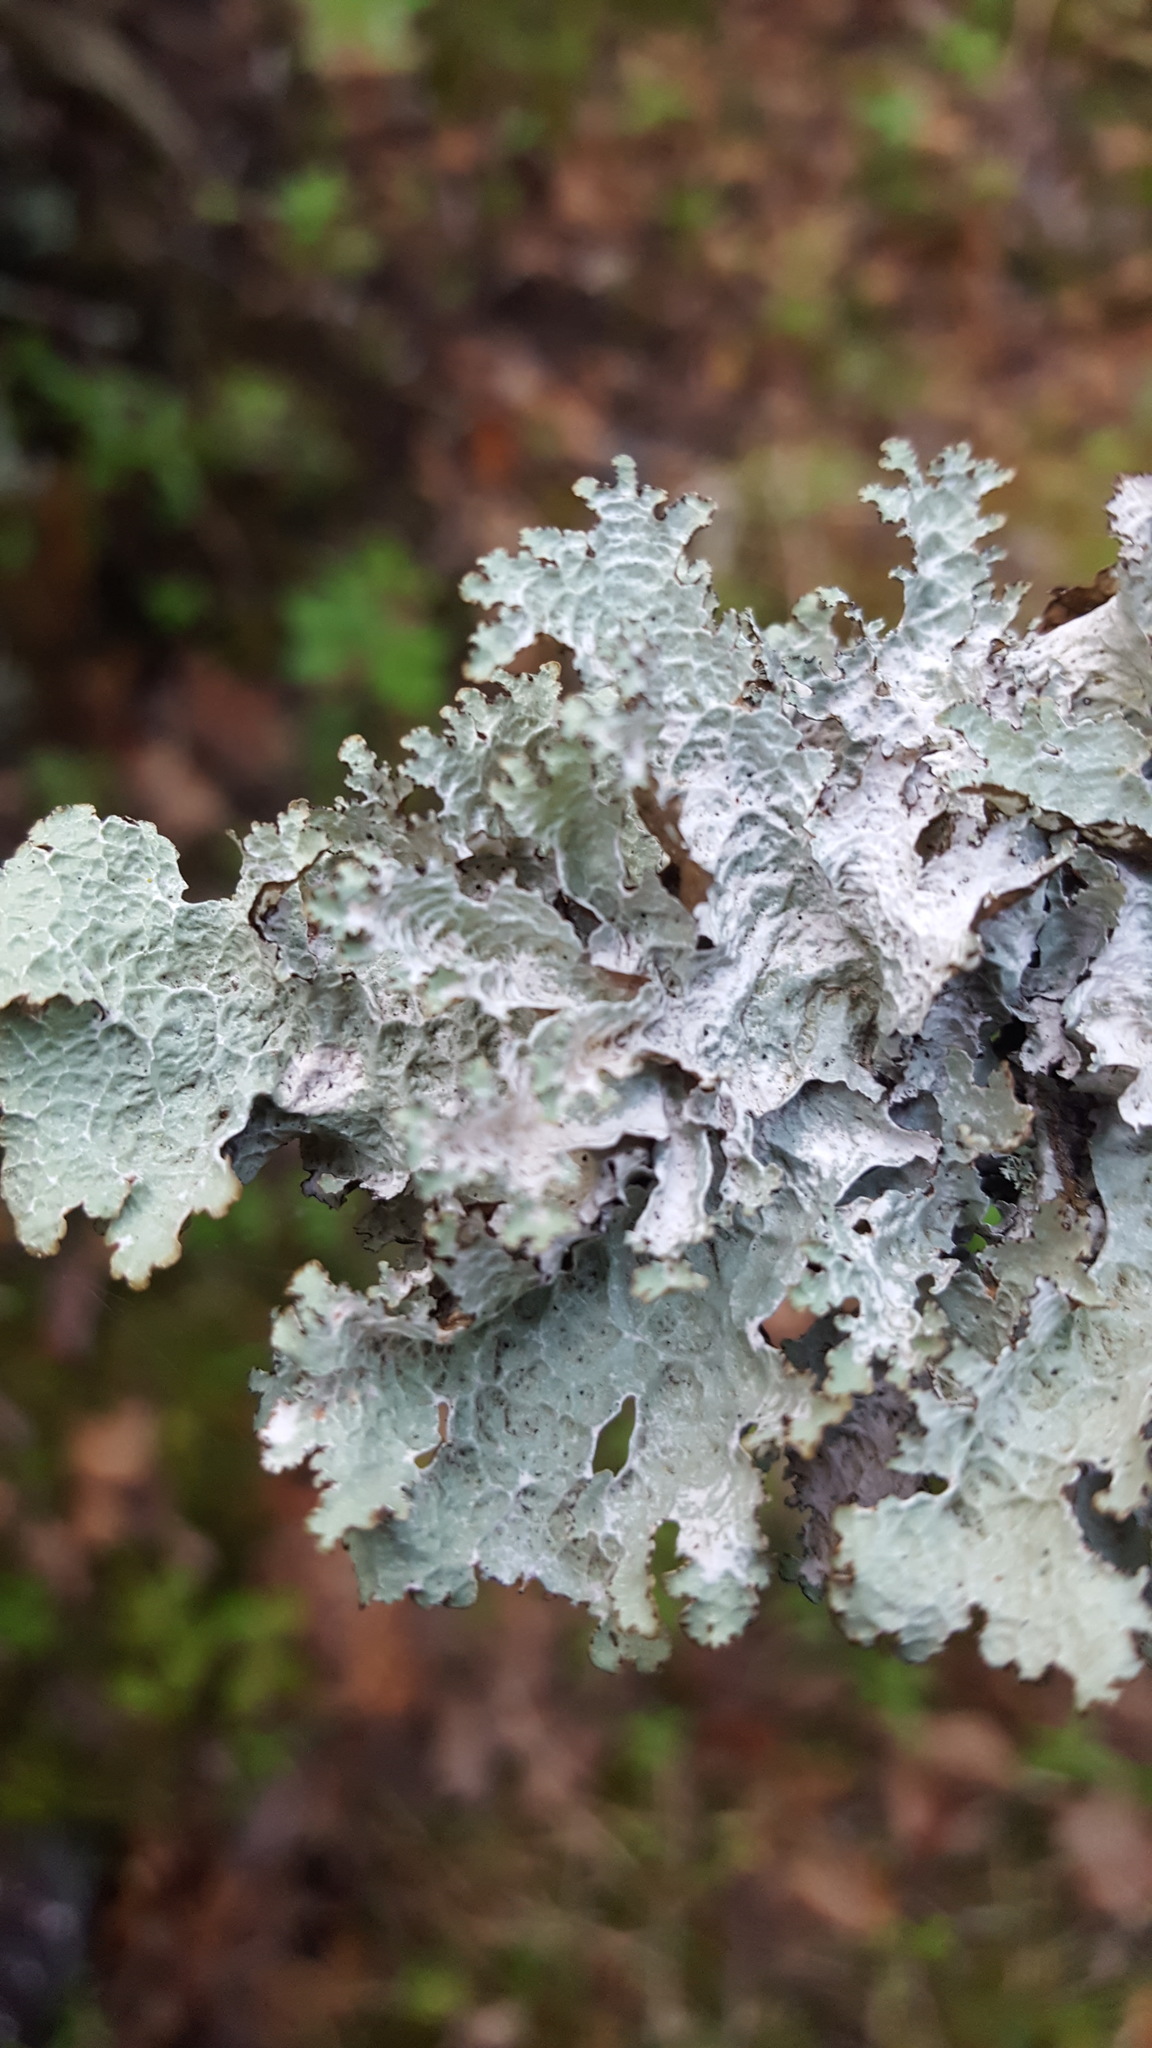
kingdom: Fungi
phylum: Ascomycota
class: Lecanoromycetes
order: Lecanorales
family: Parmeliaceae
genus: Platismatia
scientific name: Platismatia tuckermanii
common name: Crumpled rag lichen
